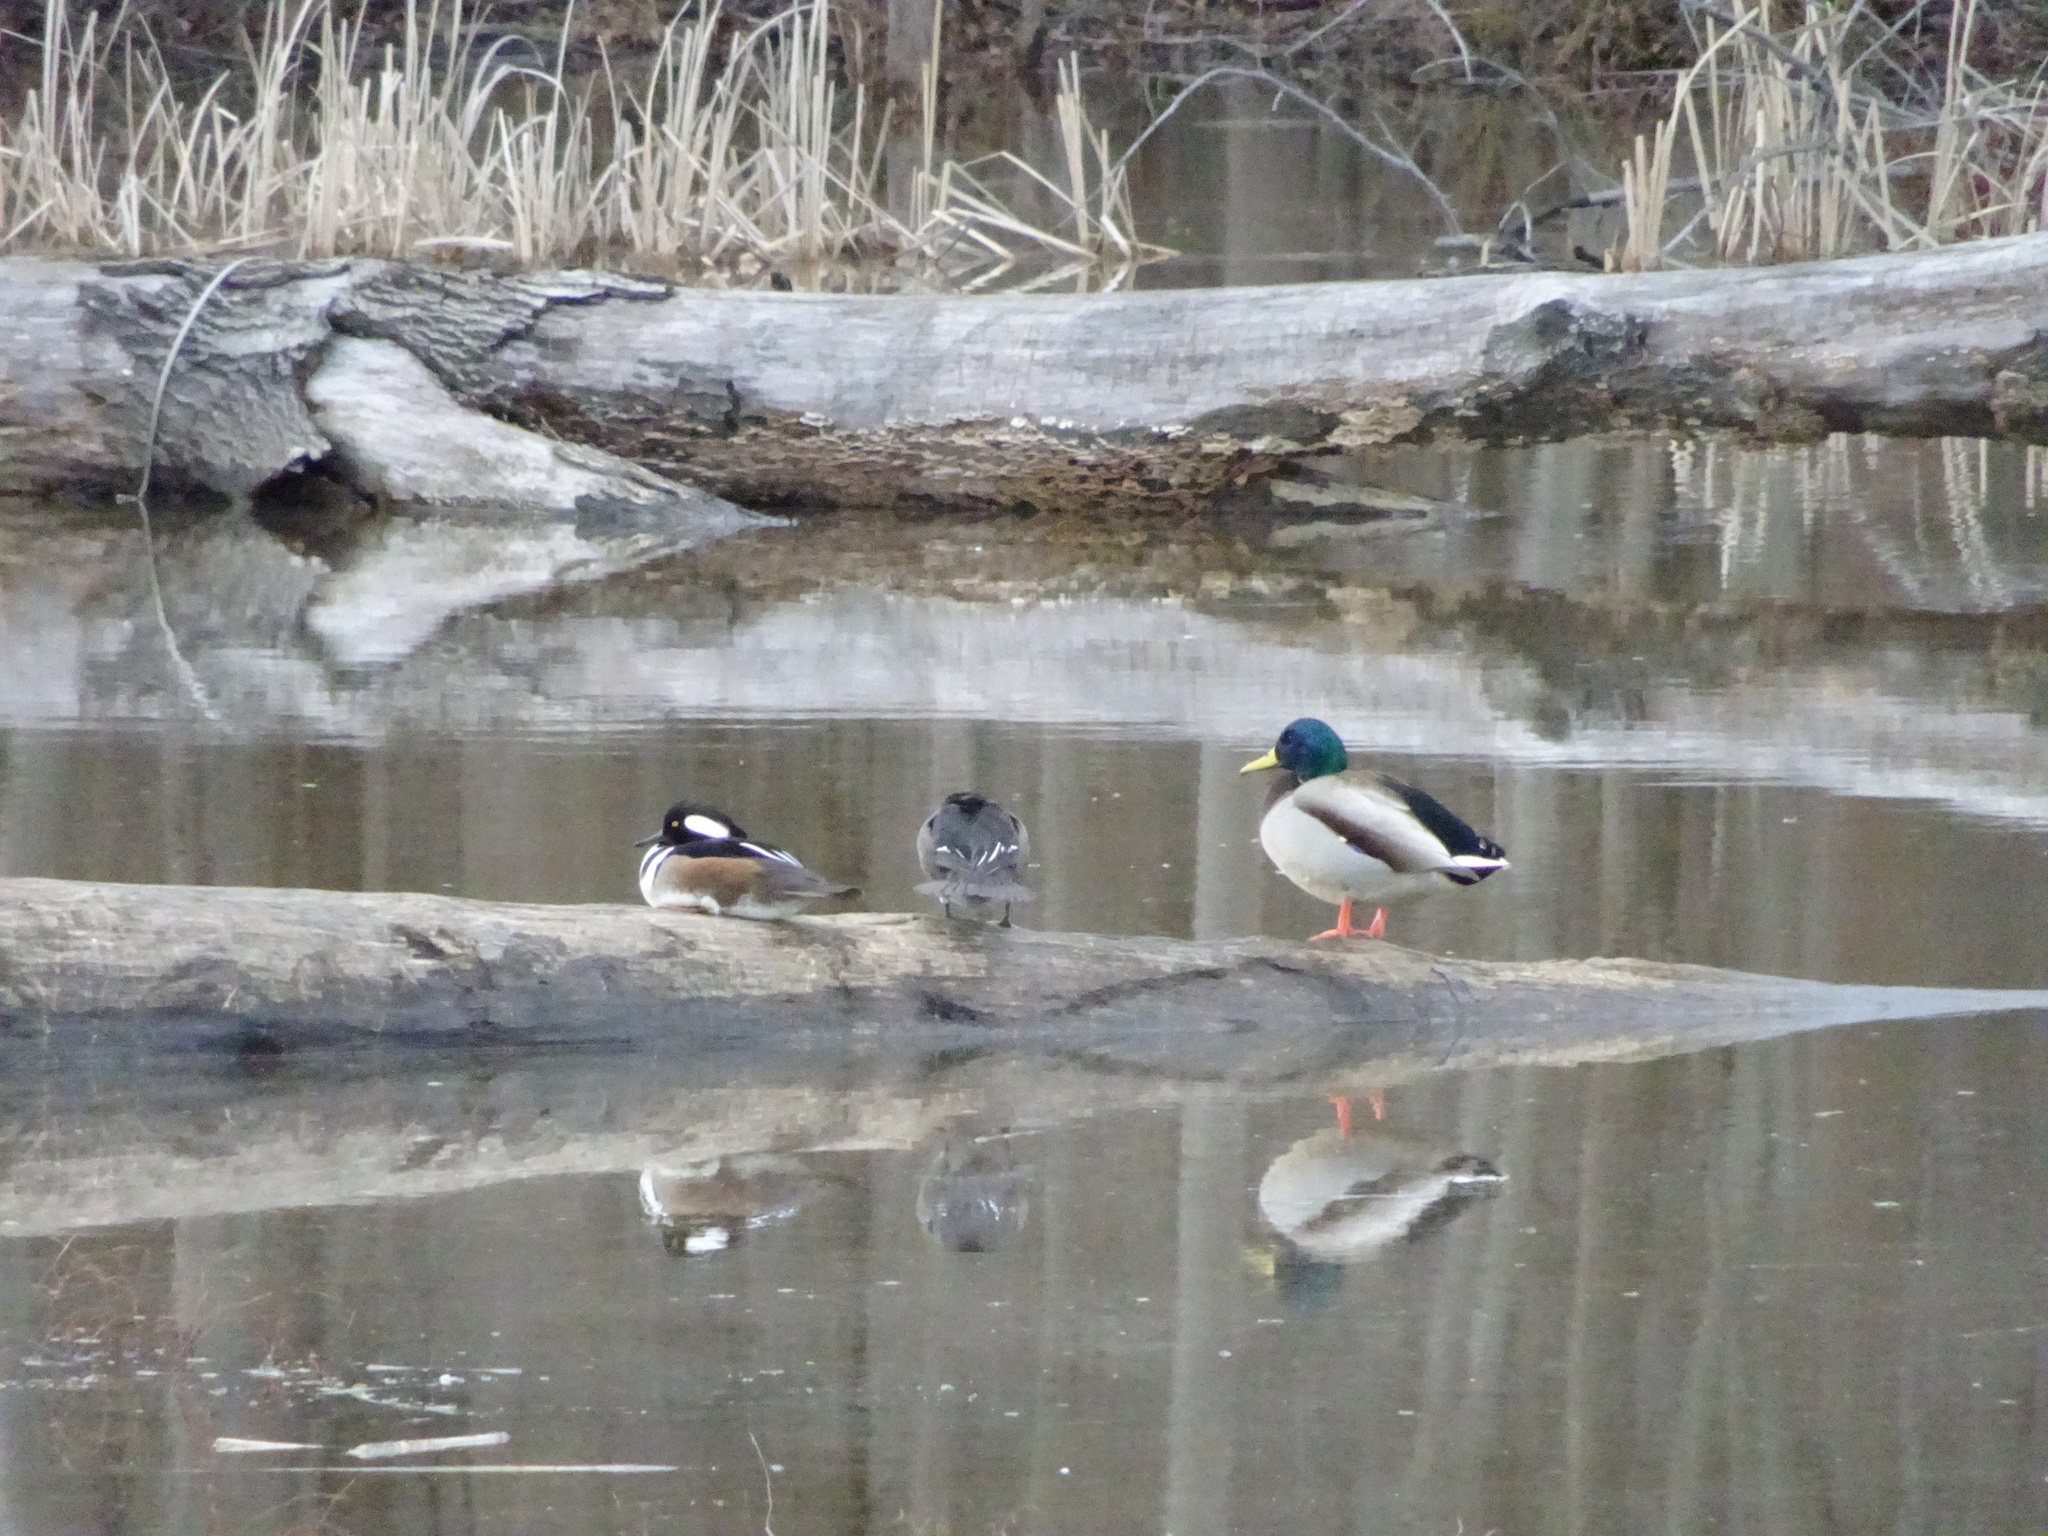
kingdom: Animalia
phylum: Chordata
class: Aves
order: Anseriformes
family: Anatidae
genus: Anas
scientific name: Anas platyrhynchos
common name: Mallard
